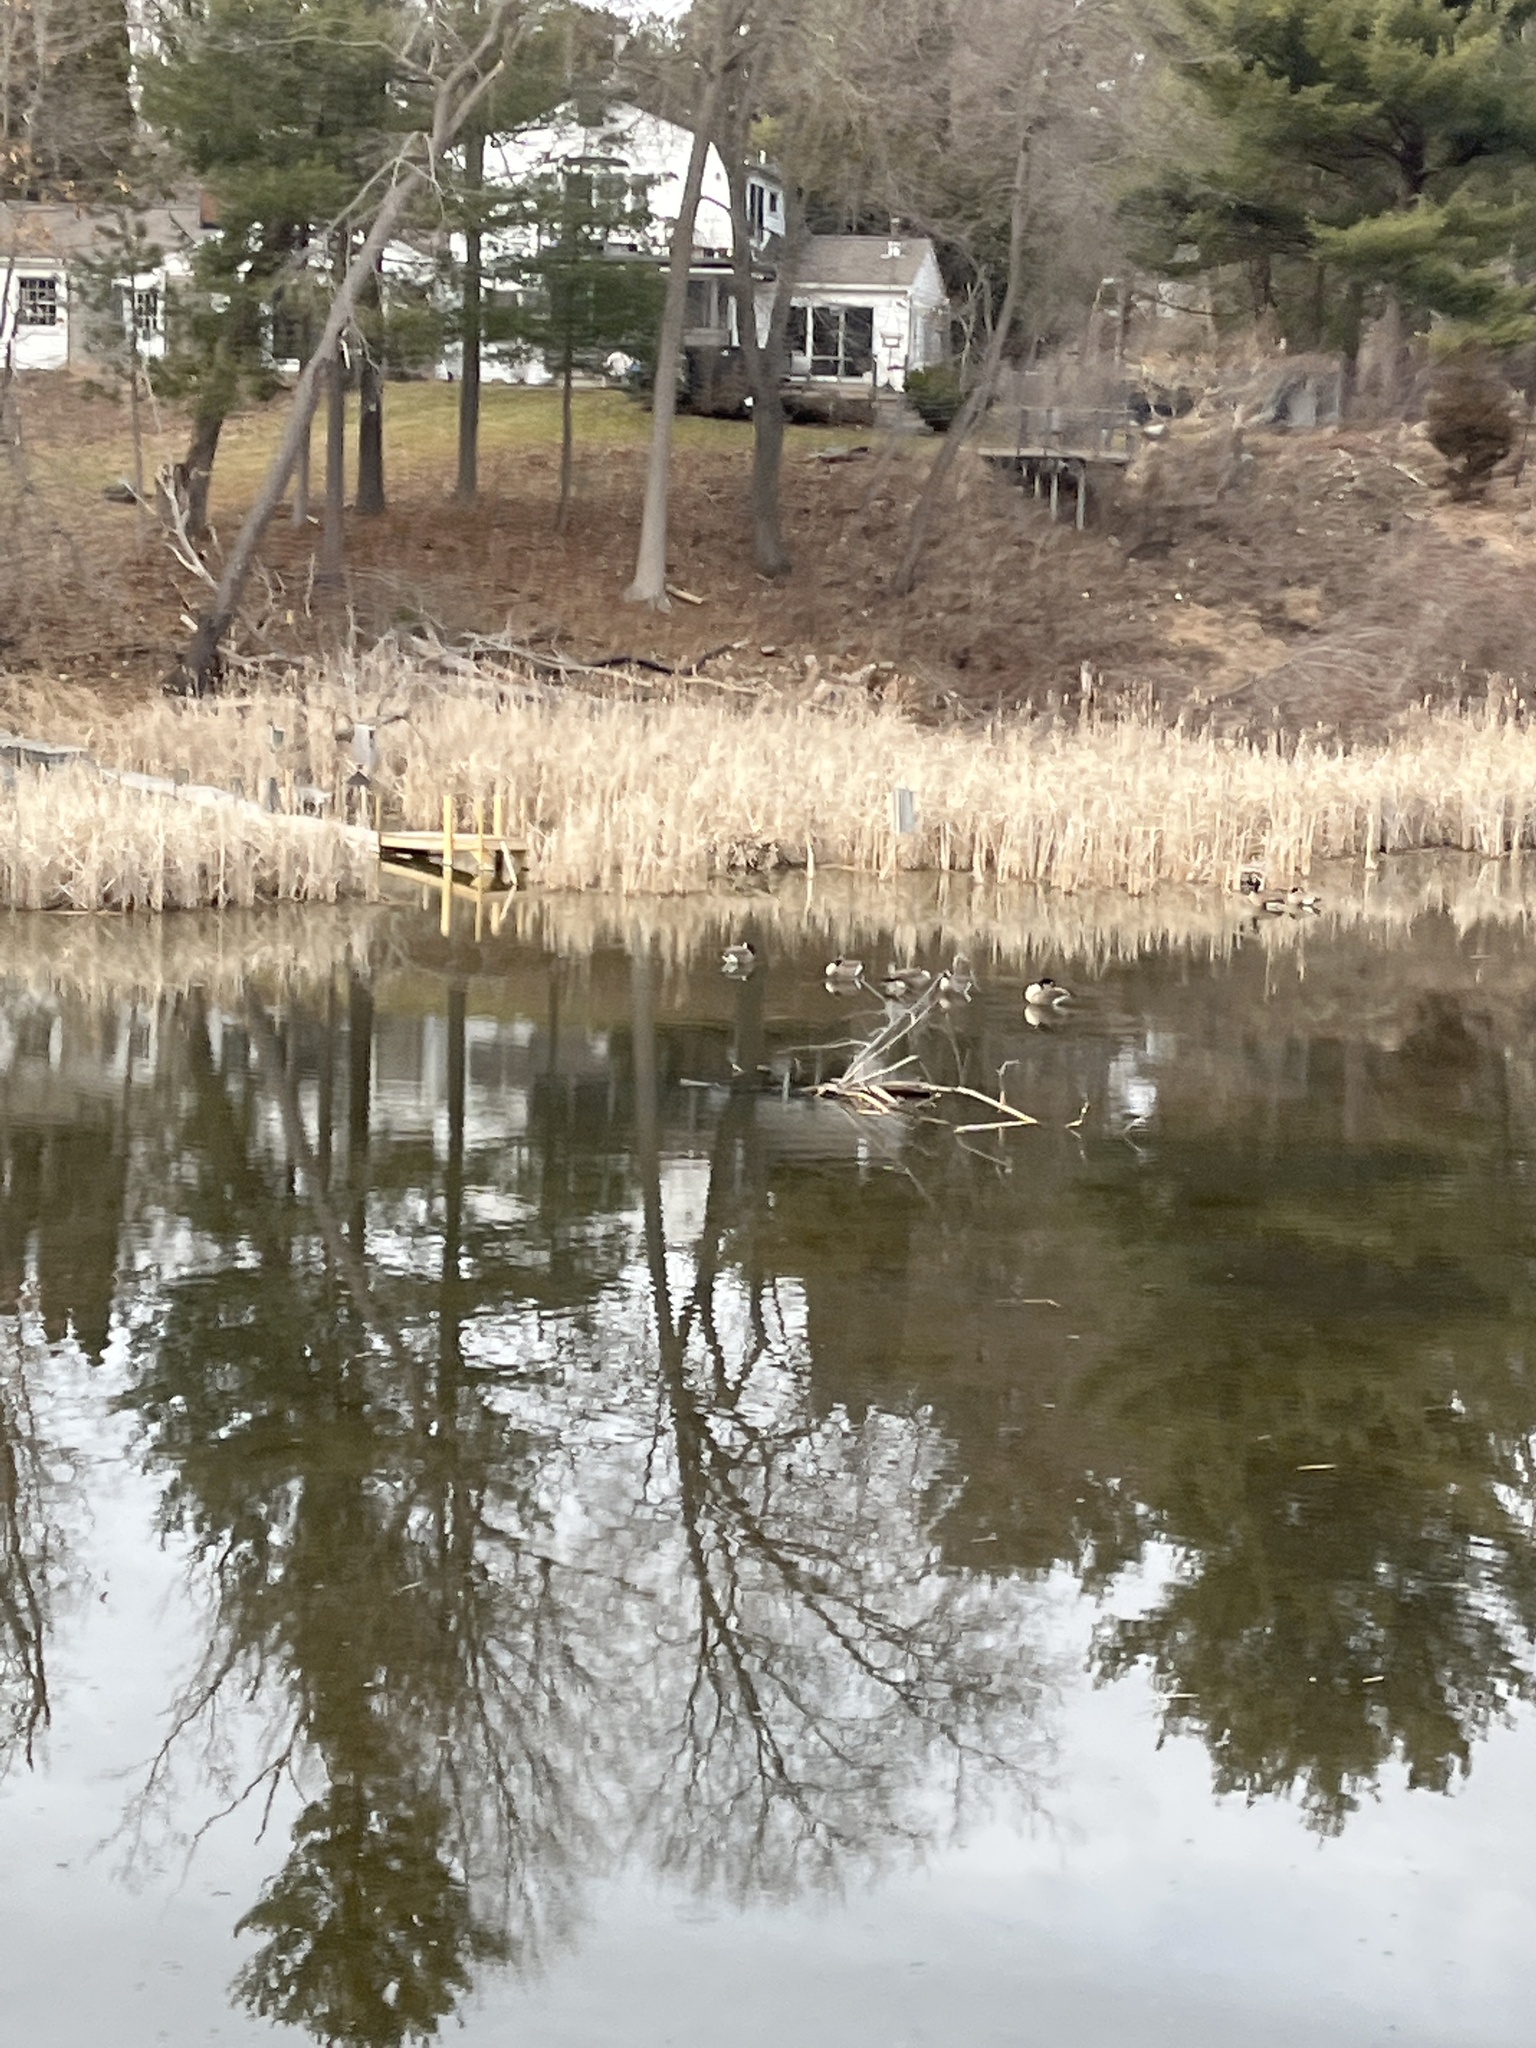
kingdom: Animalia
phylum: Chordata
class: Aves
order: Anseriformes
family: Anatidae
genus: Branta
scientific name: Branta canadensis
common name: Canada goose
